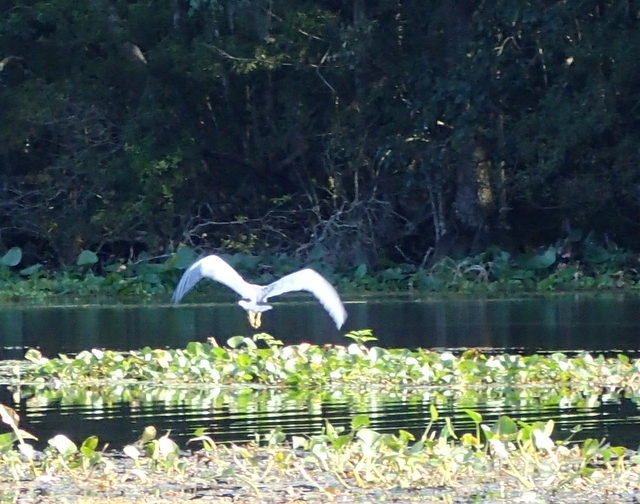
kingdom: Animalia
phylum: Chordata
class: Aves
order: Pelecaniformes
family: Ardeidae
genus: Egretta
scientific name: Egretta tricolor
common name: Tricolored heron
